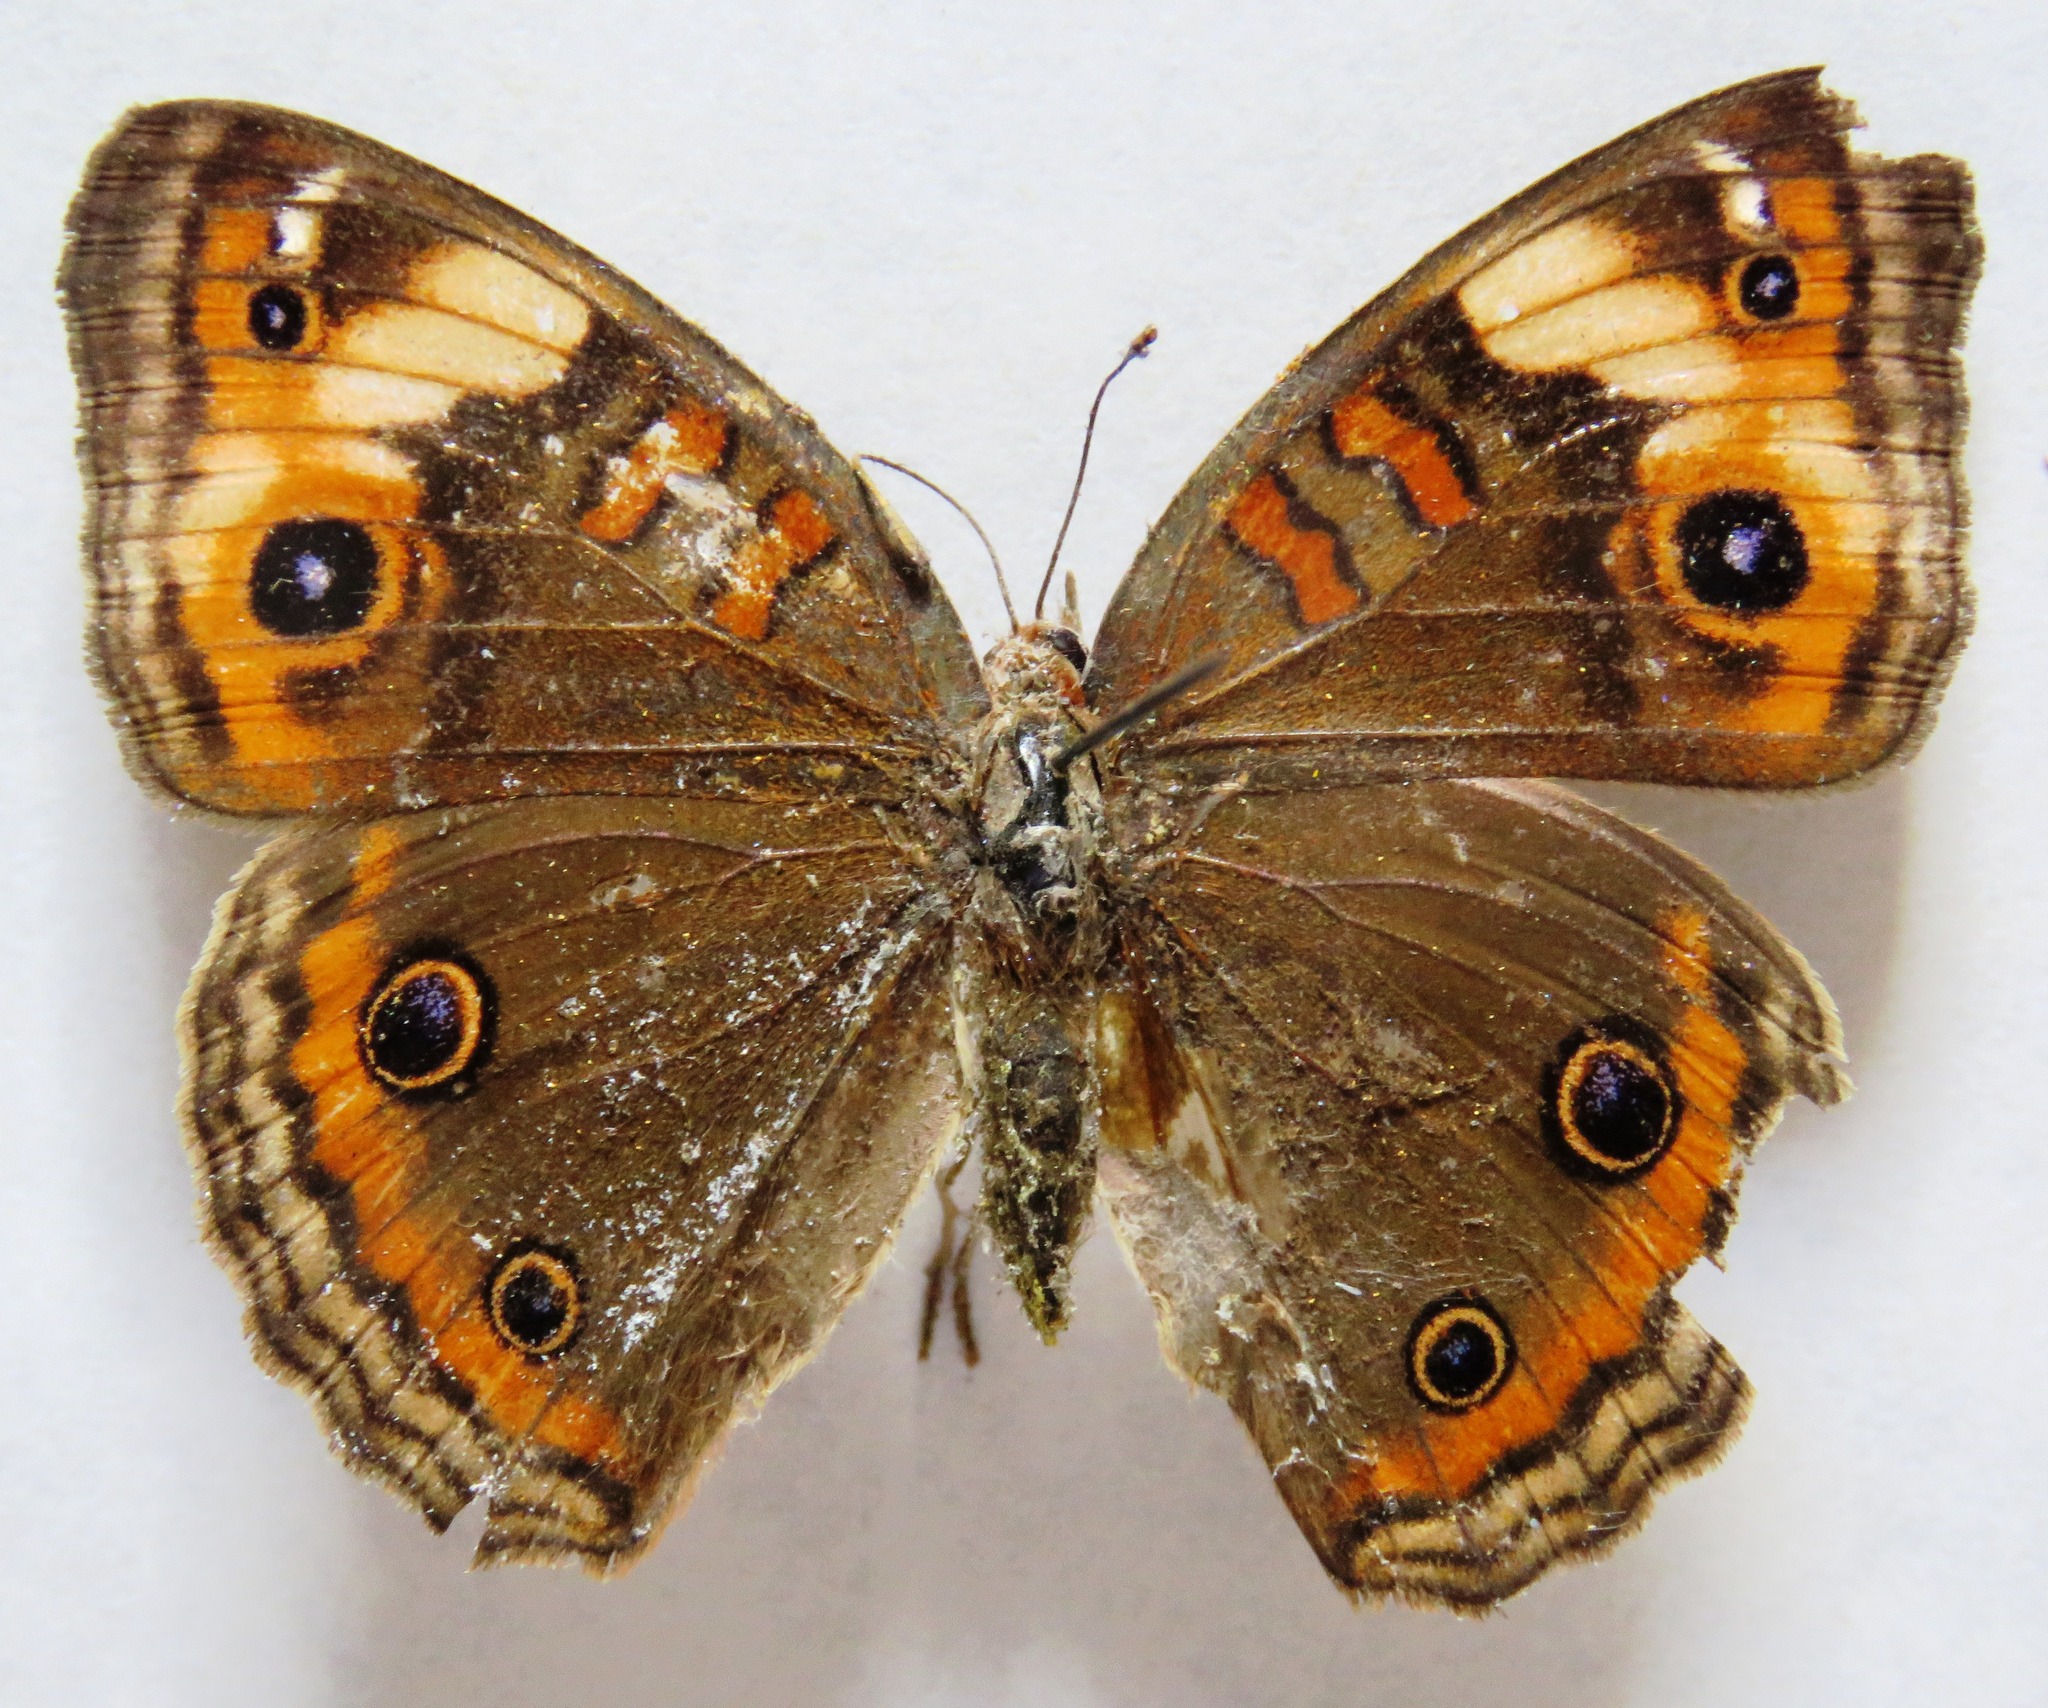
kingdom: Animalia
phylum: Arthropoda
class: Insecta
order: Lepidoptera
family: Nymphalidae
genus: Junonia
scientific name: Junonia lavinia
